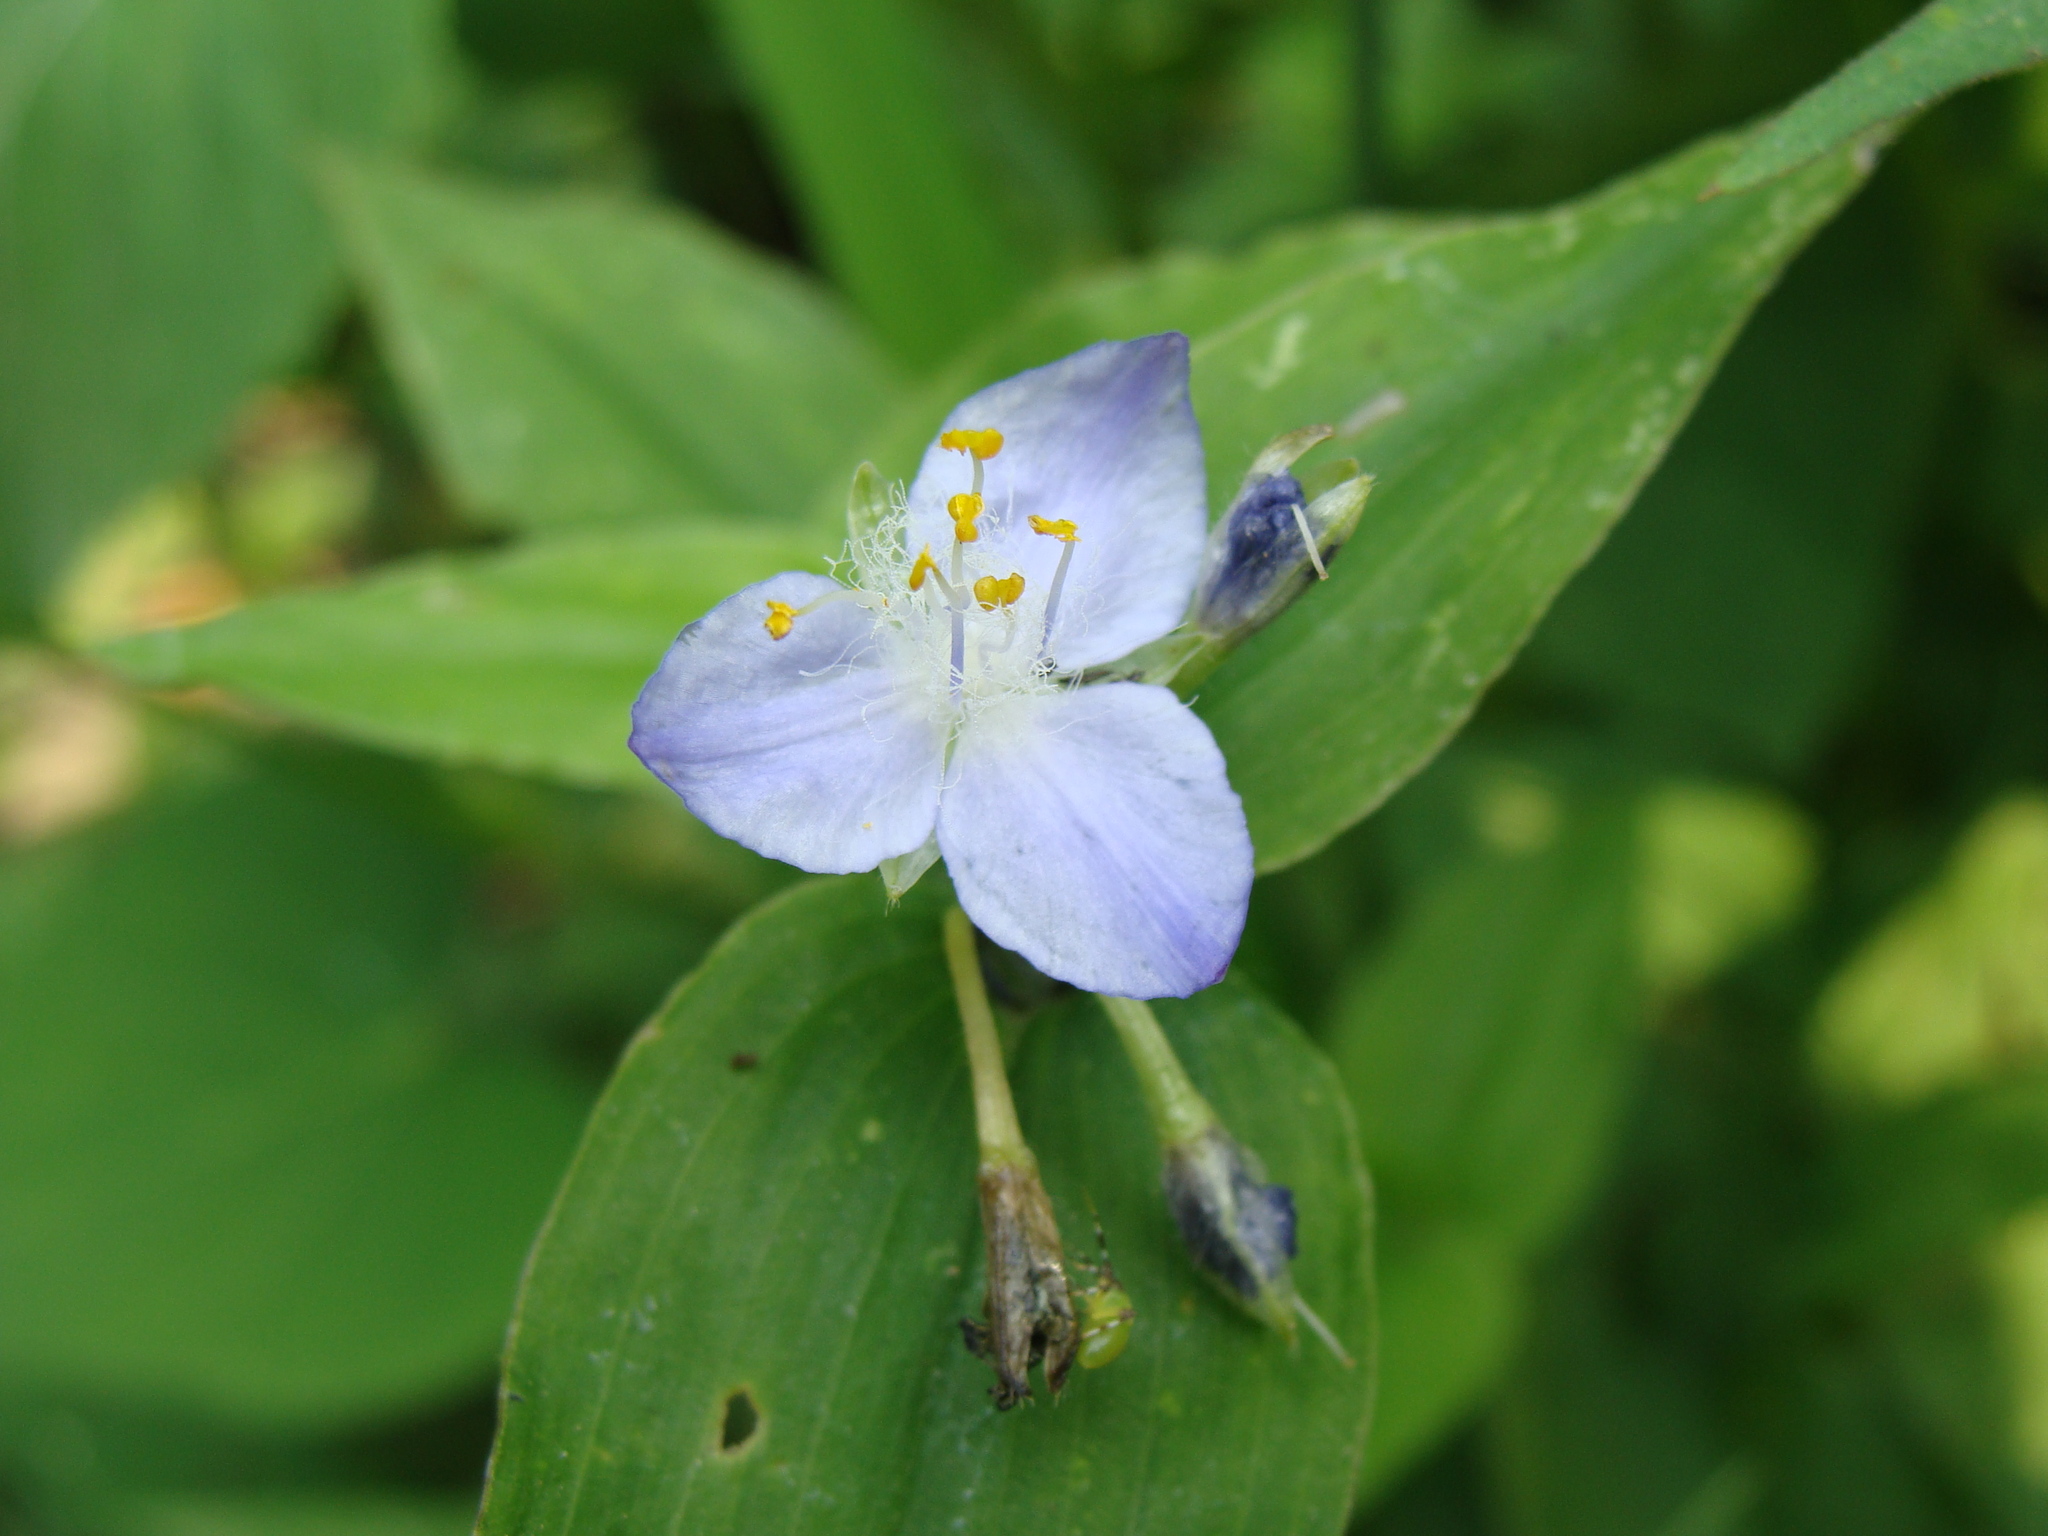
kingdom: Plantae
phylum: Tracheophyta
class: Liliopsida
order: Commelinales
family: Commelinaceae
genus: Elasis
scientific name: Elasis guatemalensis
